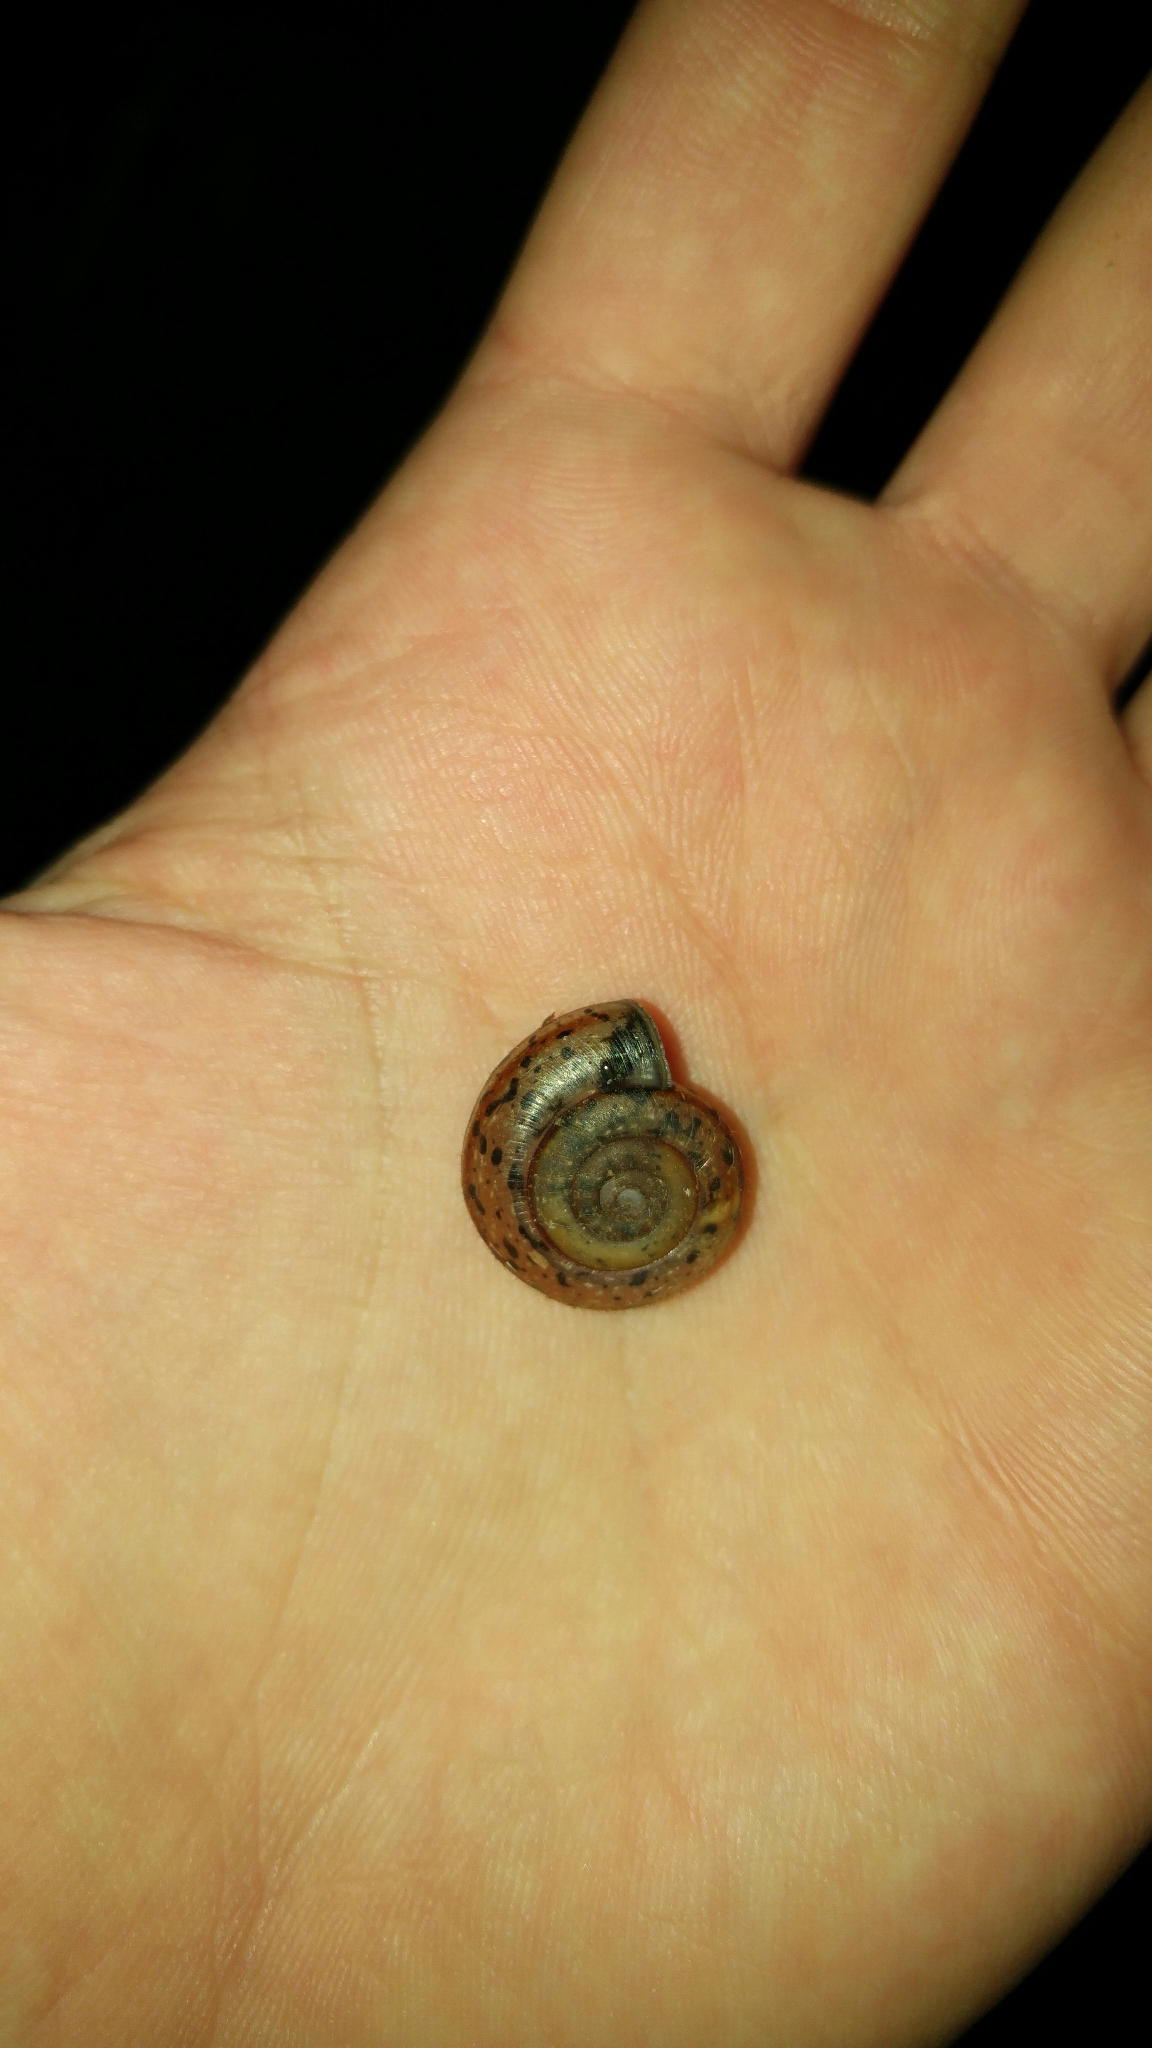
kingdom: Animalia
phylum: Mollusca
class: Gastropoda
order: Stylommatophora
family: Helicidae
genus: Campylaea
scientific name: Campylaea planospira
